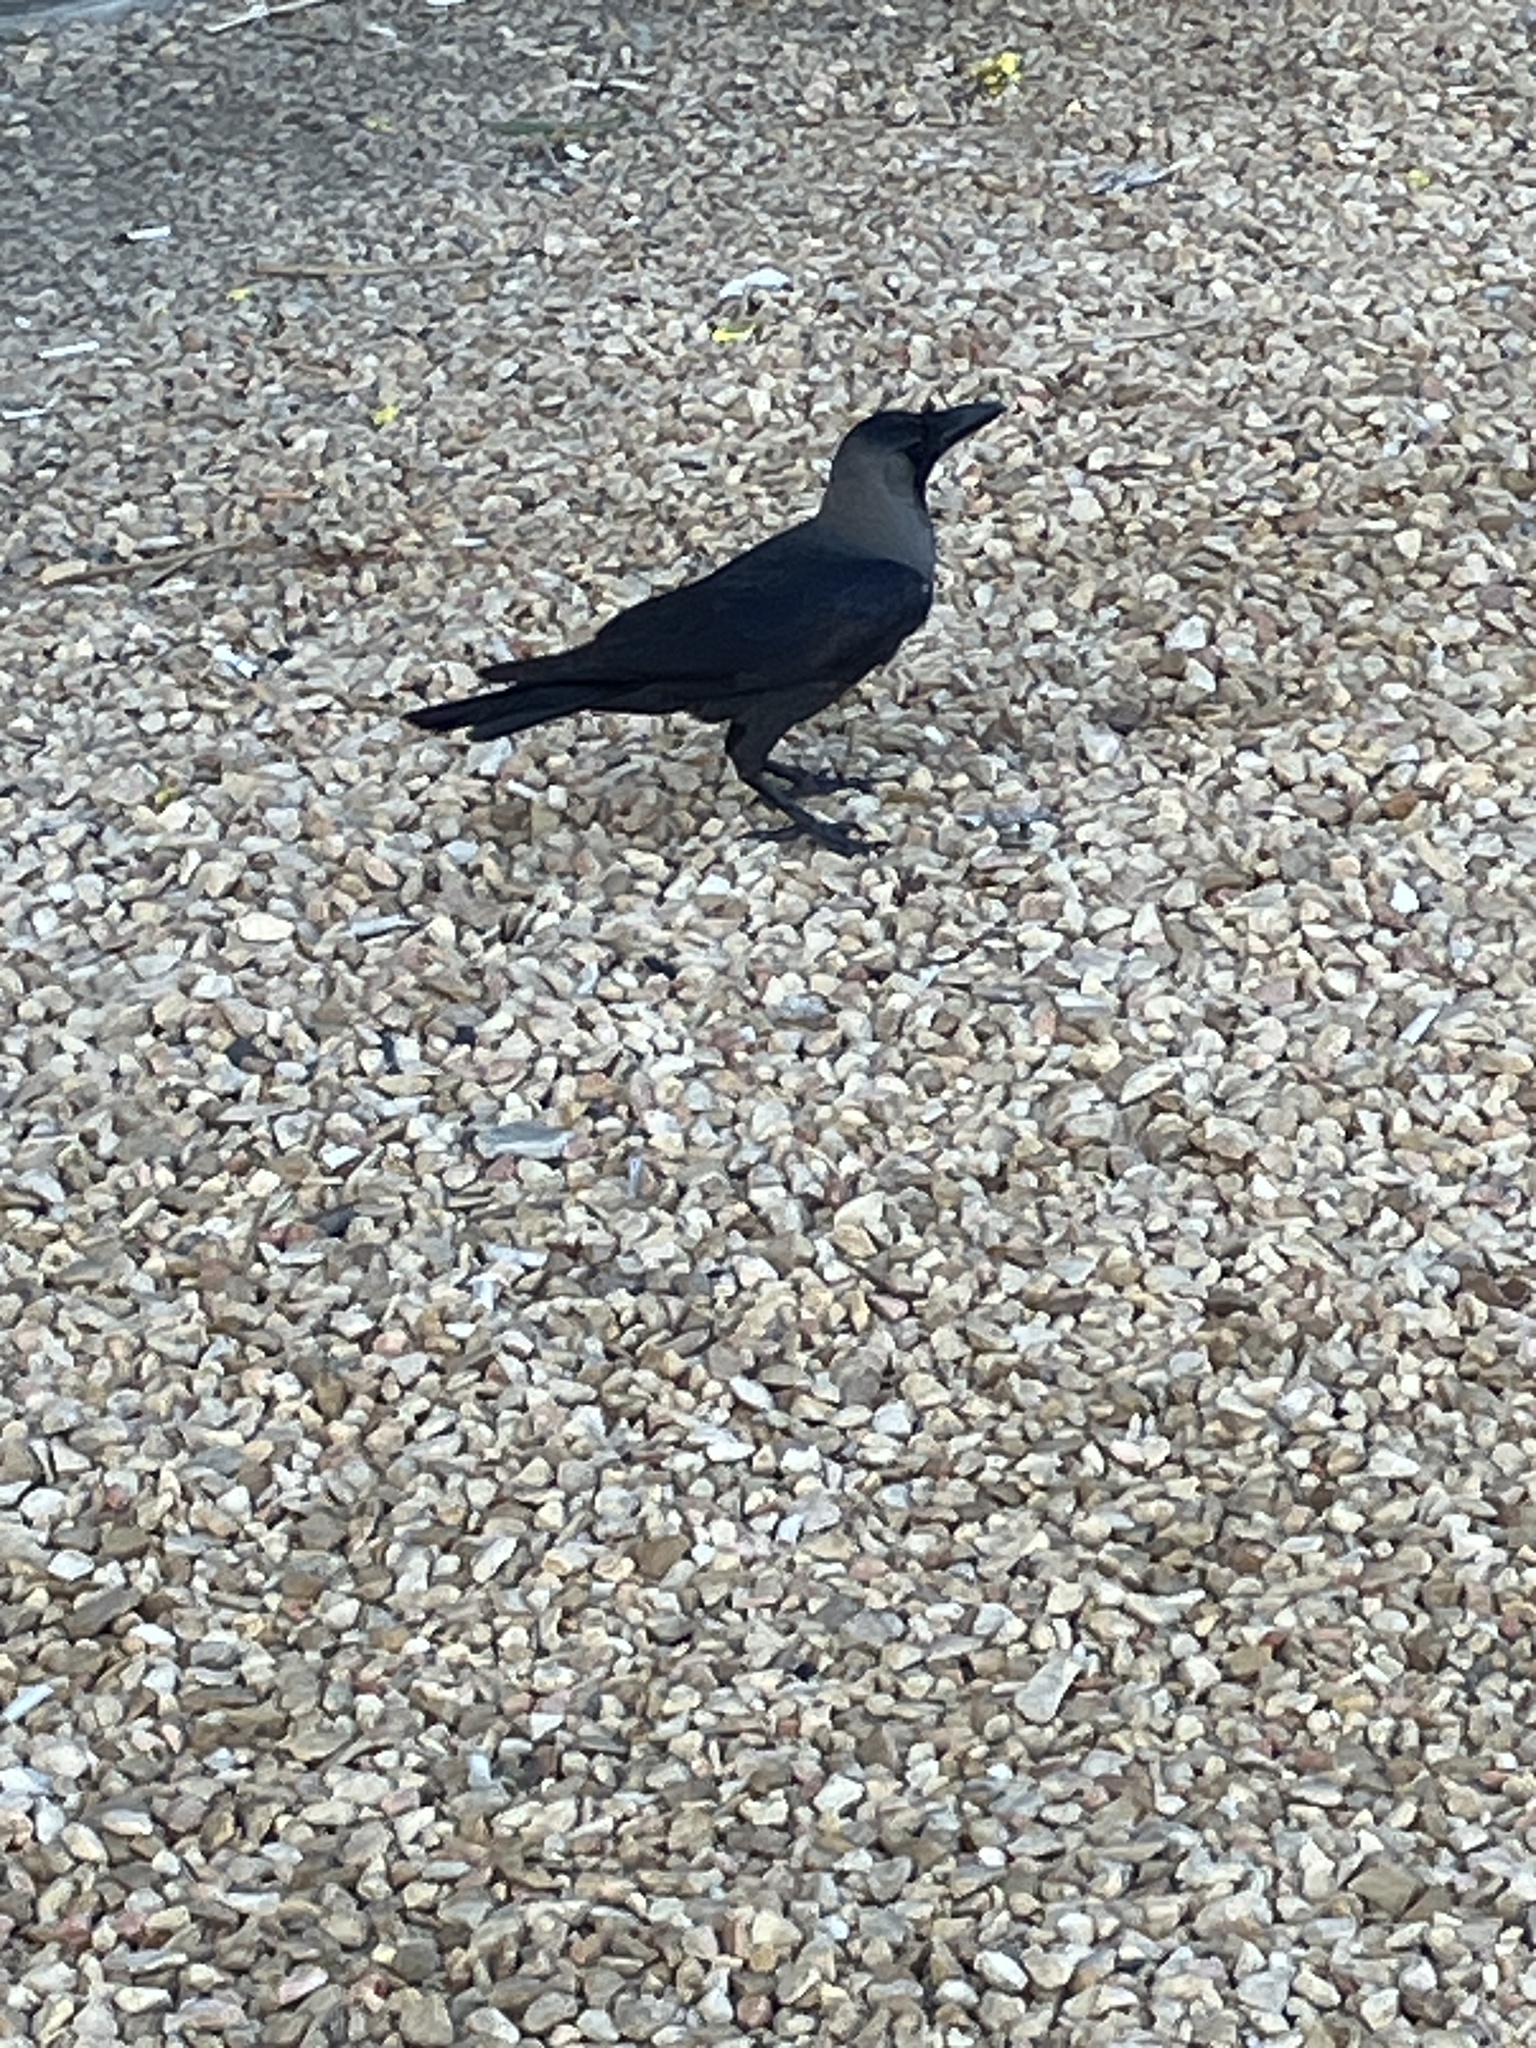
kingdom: Animalia
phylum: Chordata
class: Aves
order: Passeriformes
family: Corvidae
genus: Corvus
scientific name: Corvus splendens
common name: House crow
